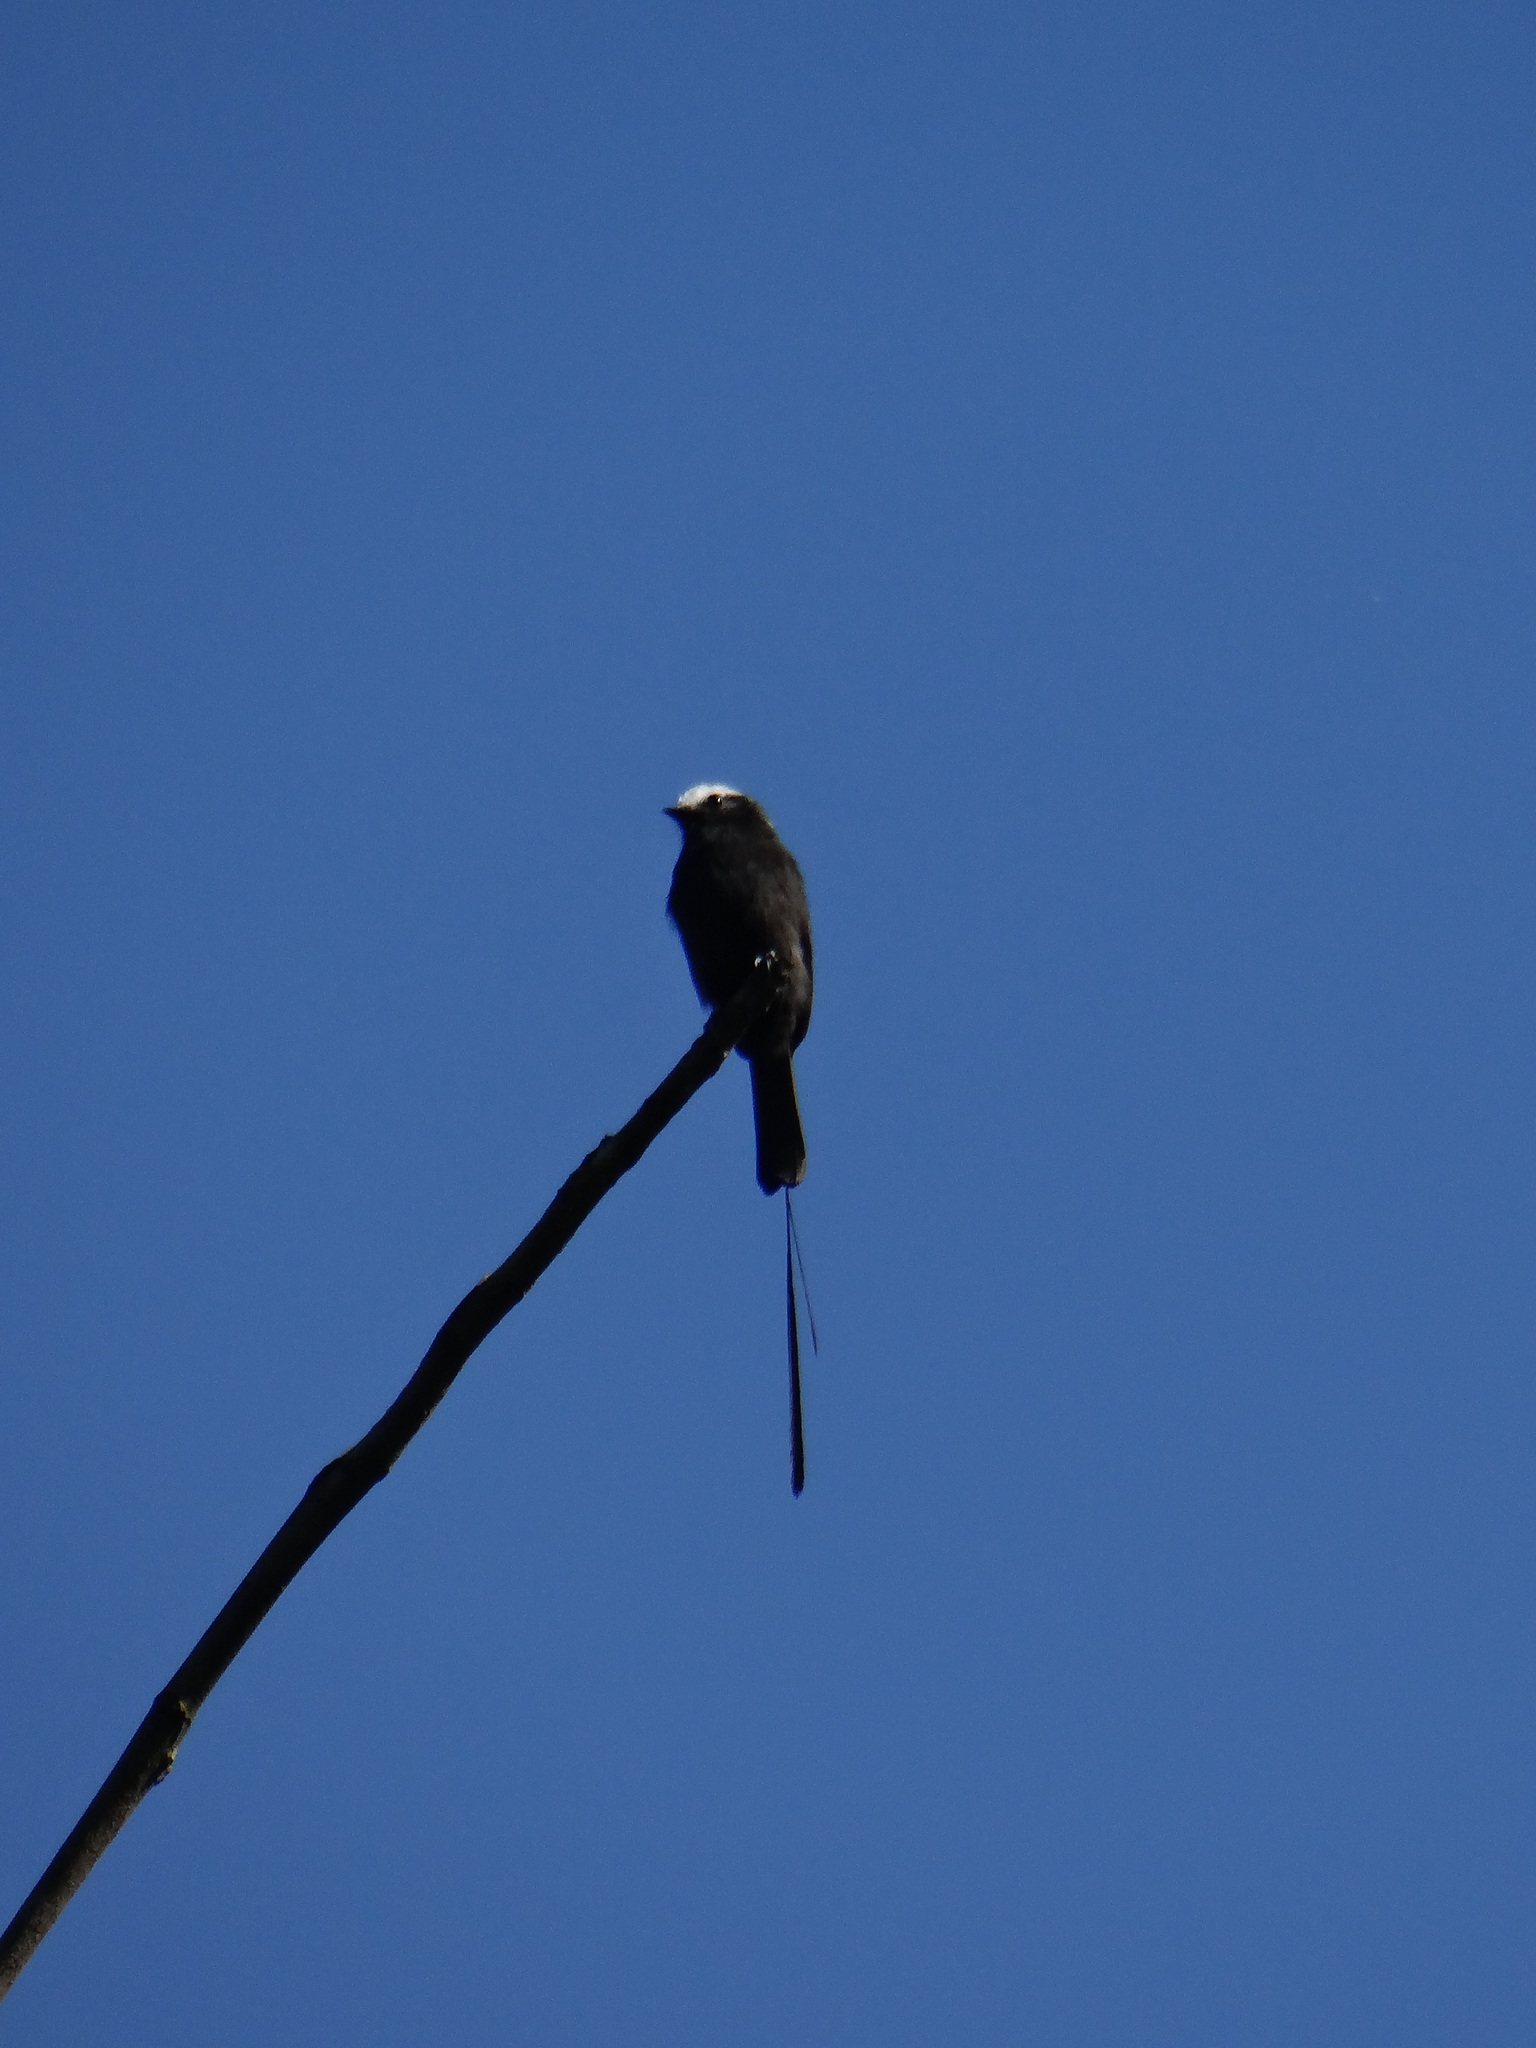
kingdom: Animalia
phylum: Chordata
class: Aves
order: Passeriformes
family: Tyrannidae
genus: Colonia
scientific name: Colonia colonus
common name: Long-tailed tyrant
